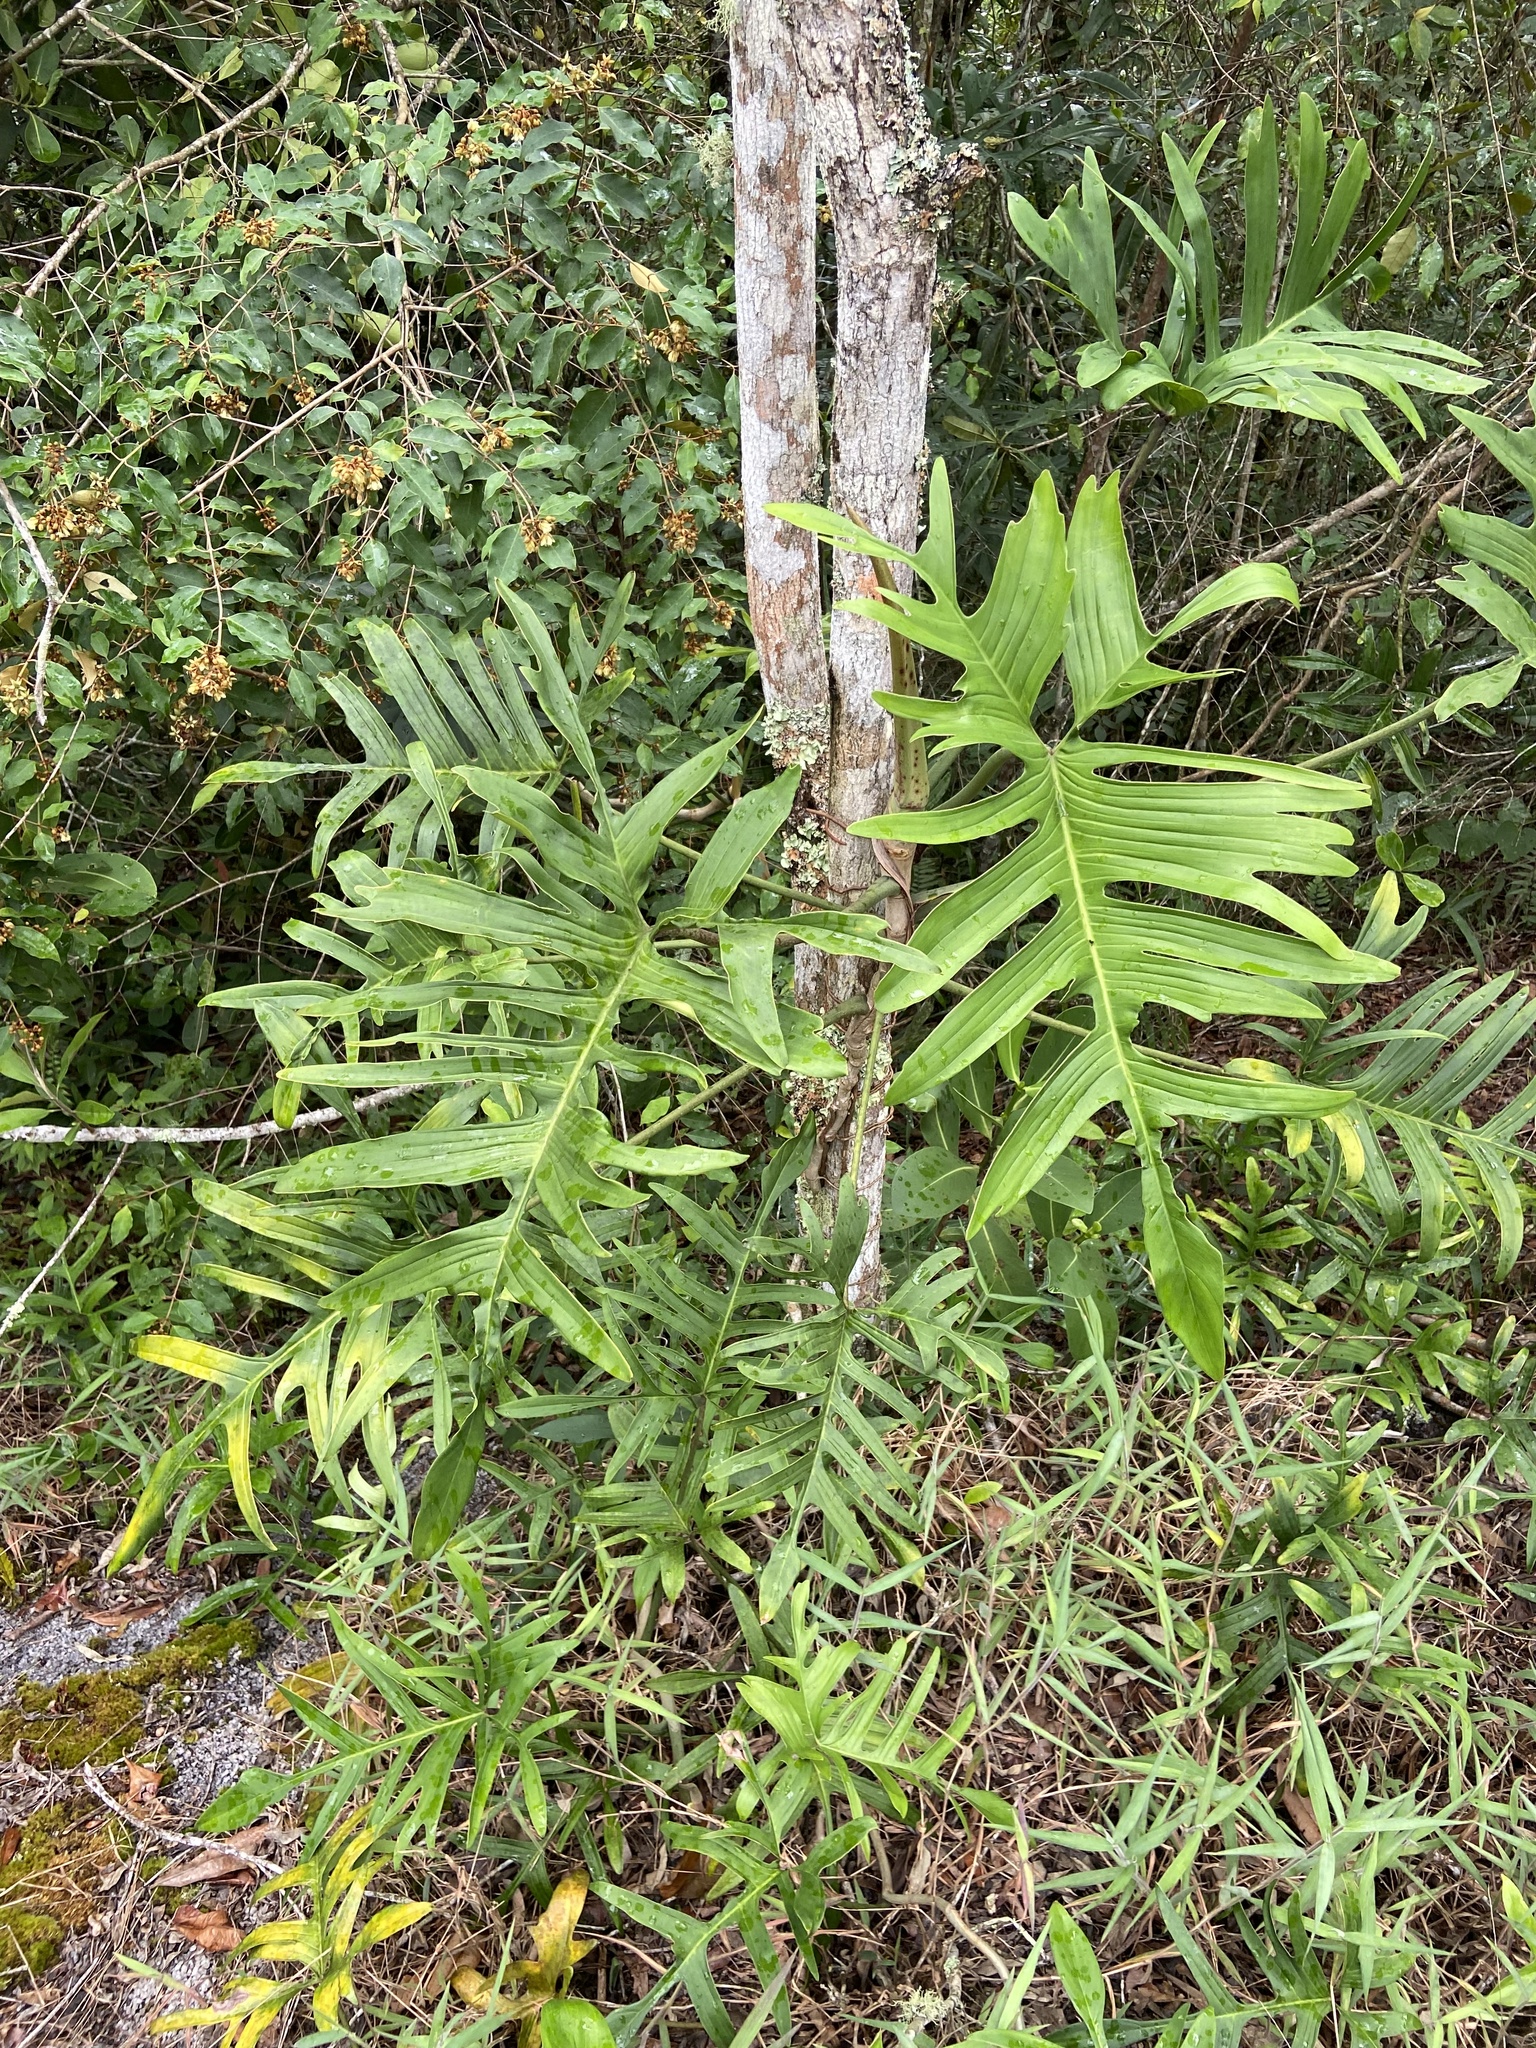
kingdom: Plantae
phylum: Tracheophyta
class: Liliopsida
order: Alismatales
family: Araceae
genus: Philodendron
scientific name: Philodendron pedatum
